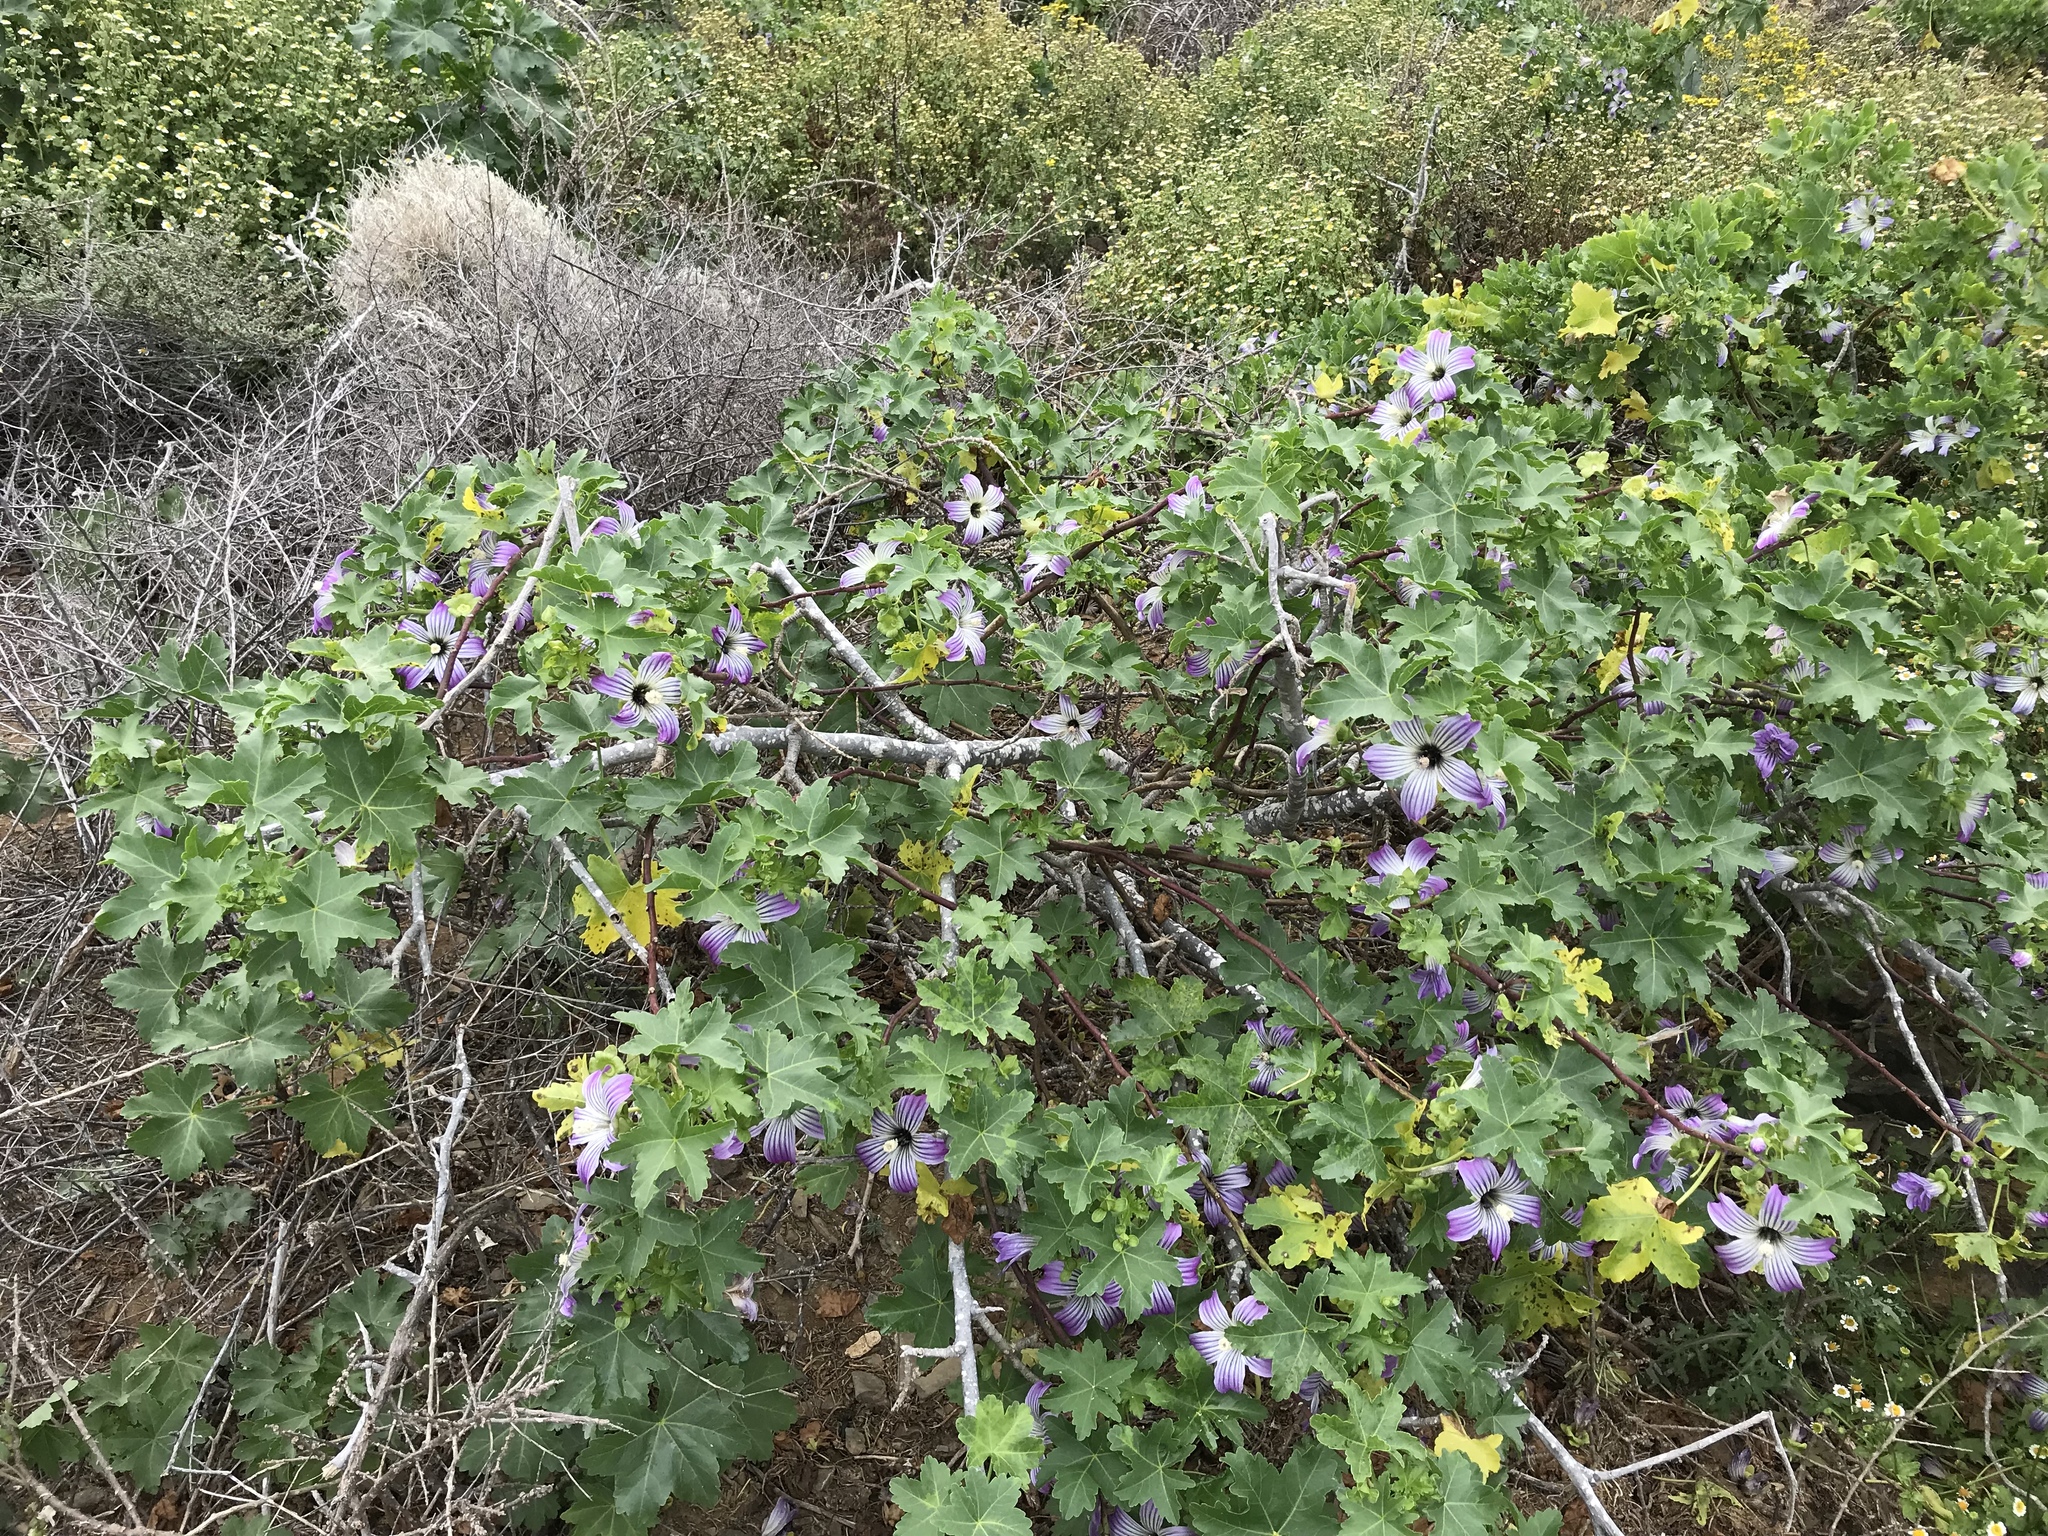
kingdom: Plantae
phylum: Tracheophyta
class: Magnoliopsida
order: Malvales
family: Malvaceae
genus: Malva
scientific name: Malva pacifica
